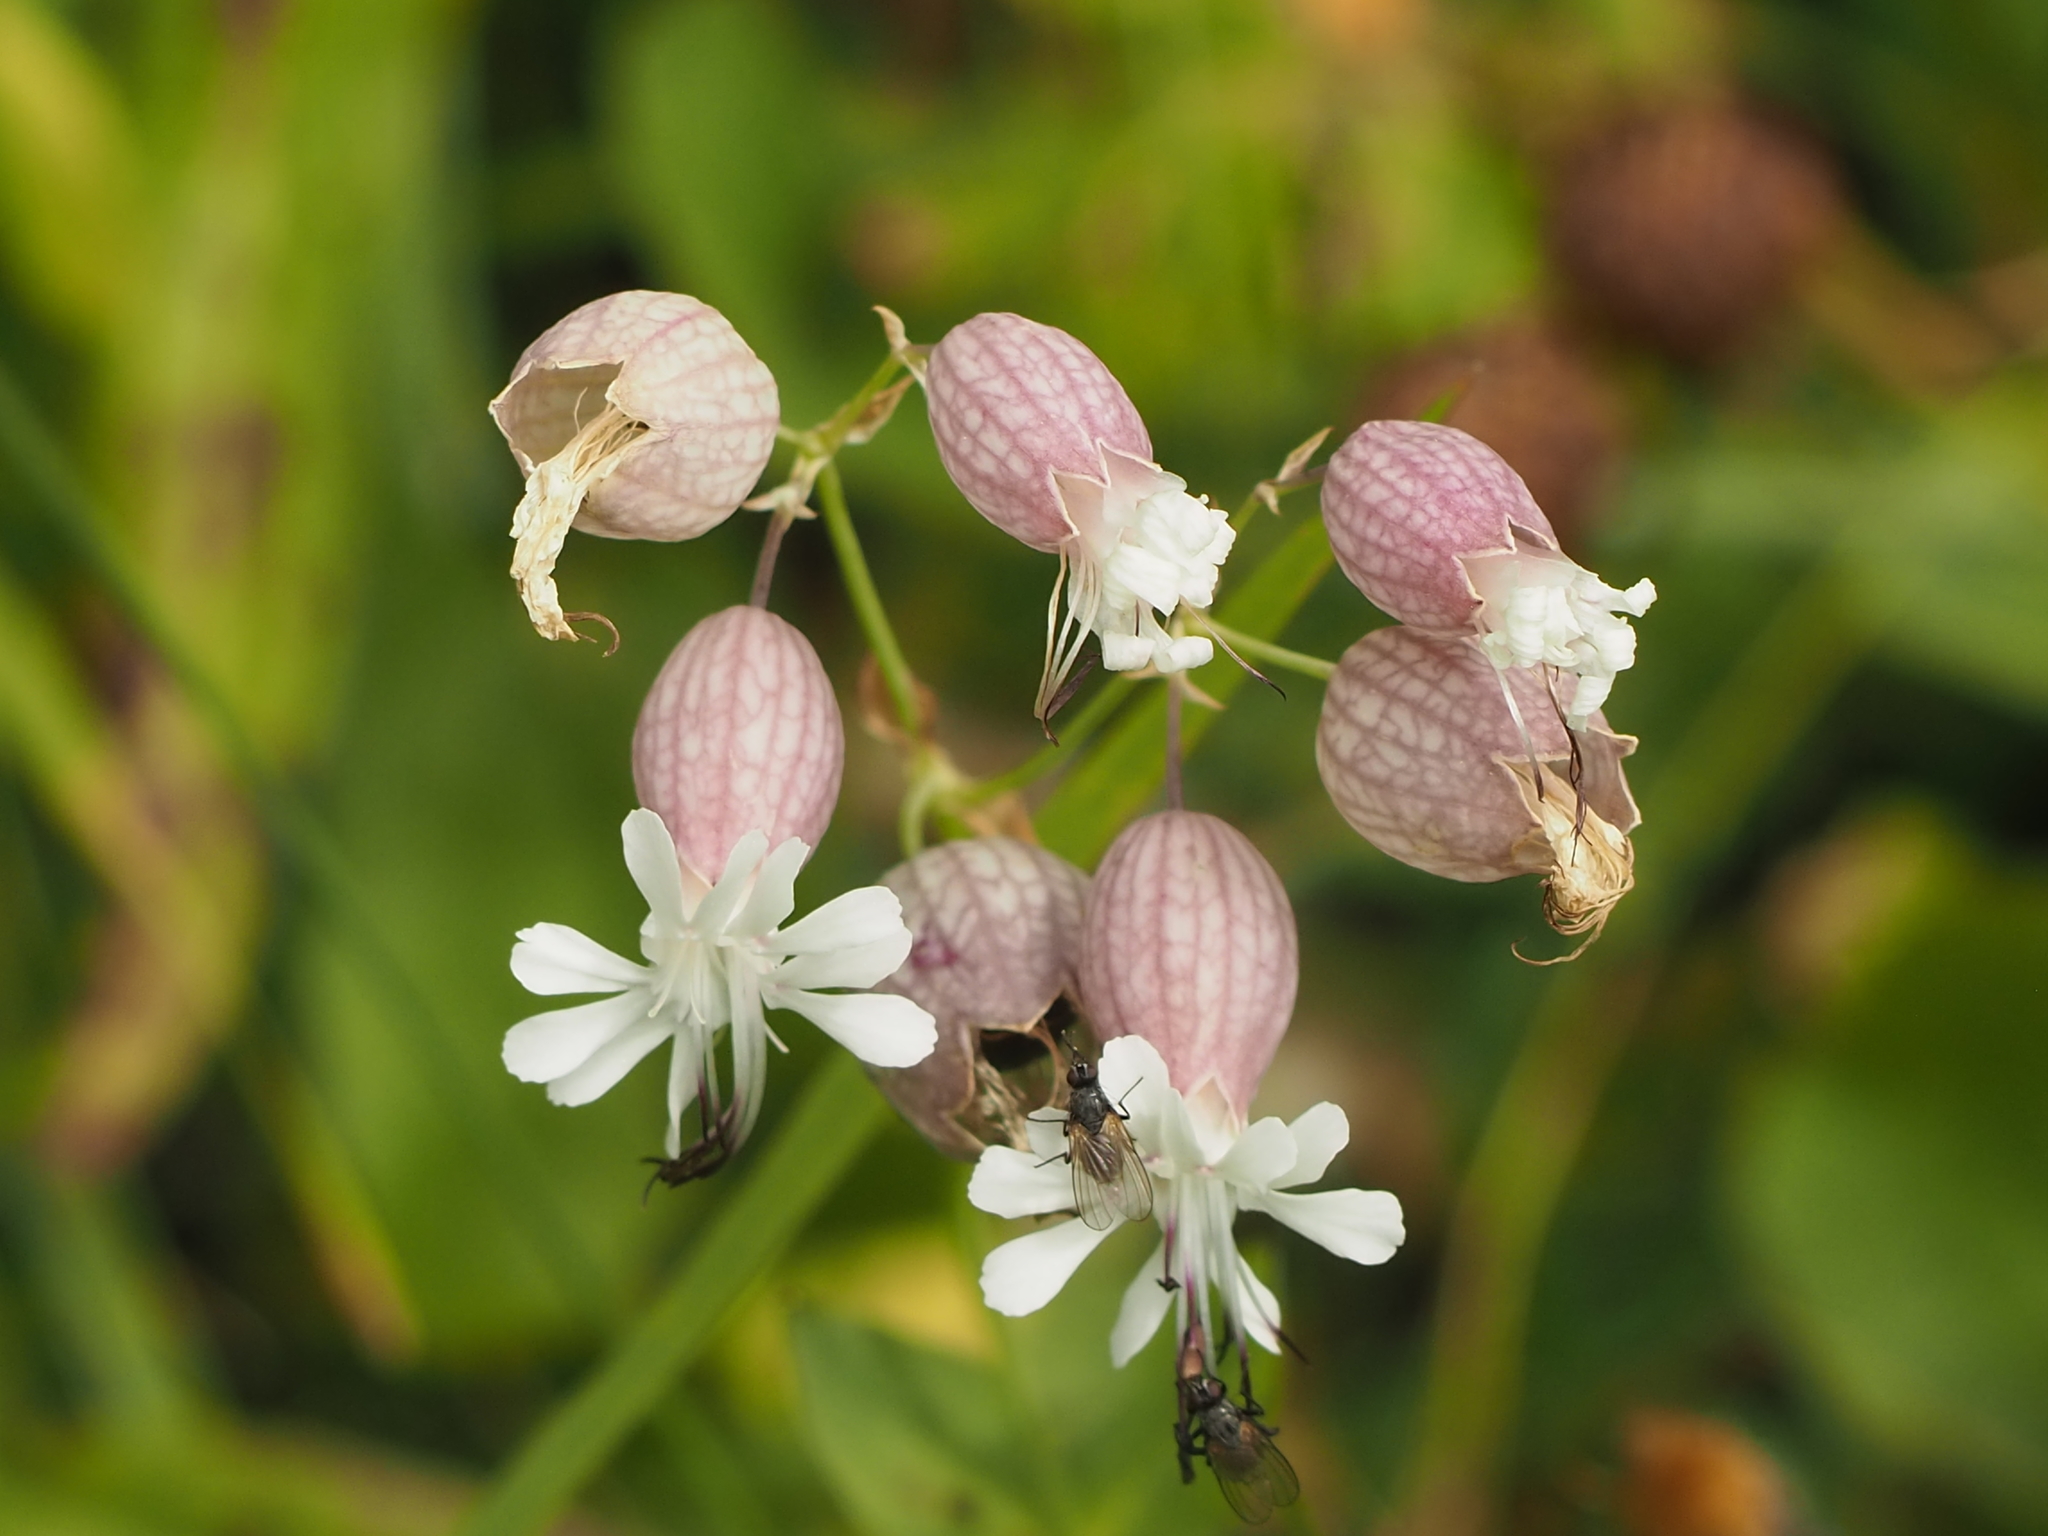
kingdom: Plantae
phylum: Tracheophyta
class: Magnoliopsida
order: Caryophyllales
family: Caryophyllaceae
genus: Silene
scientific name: Silene vulgaris
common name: Bladder campion
